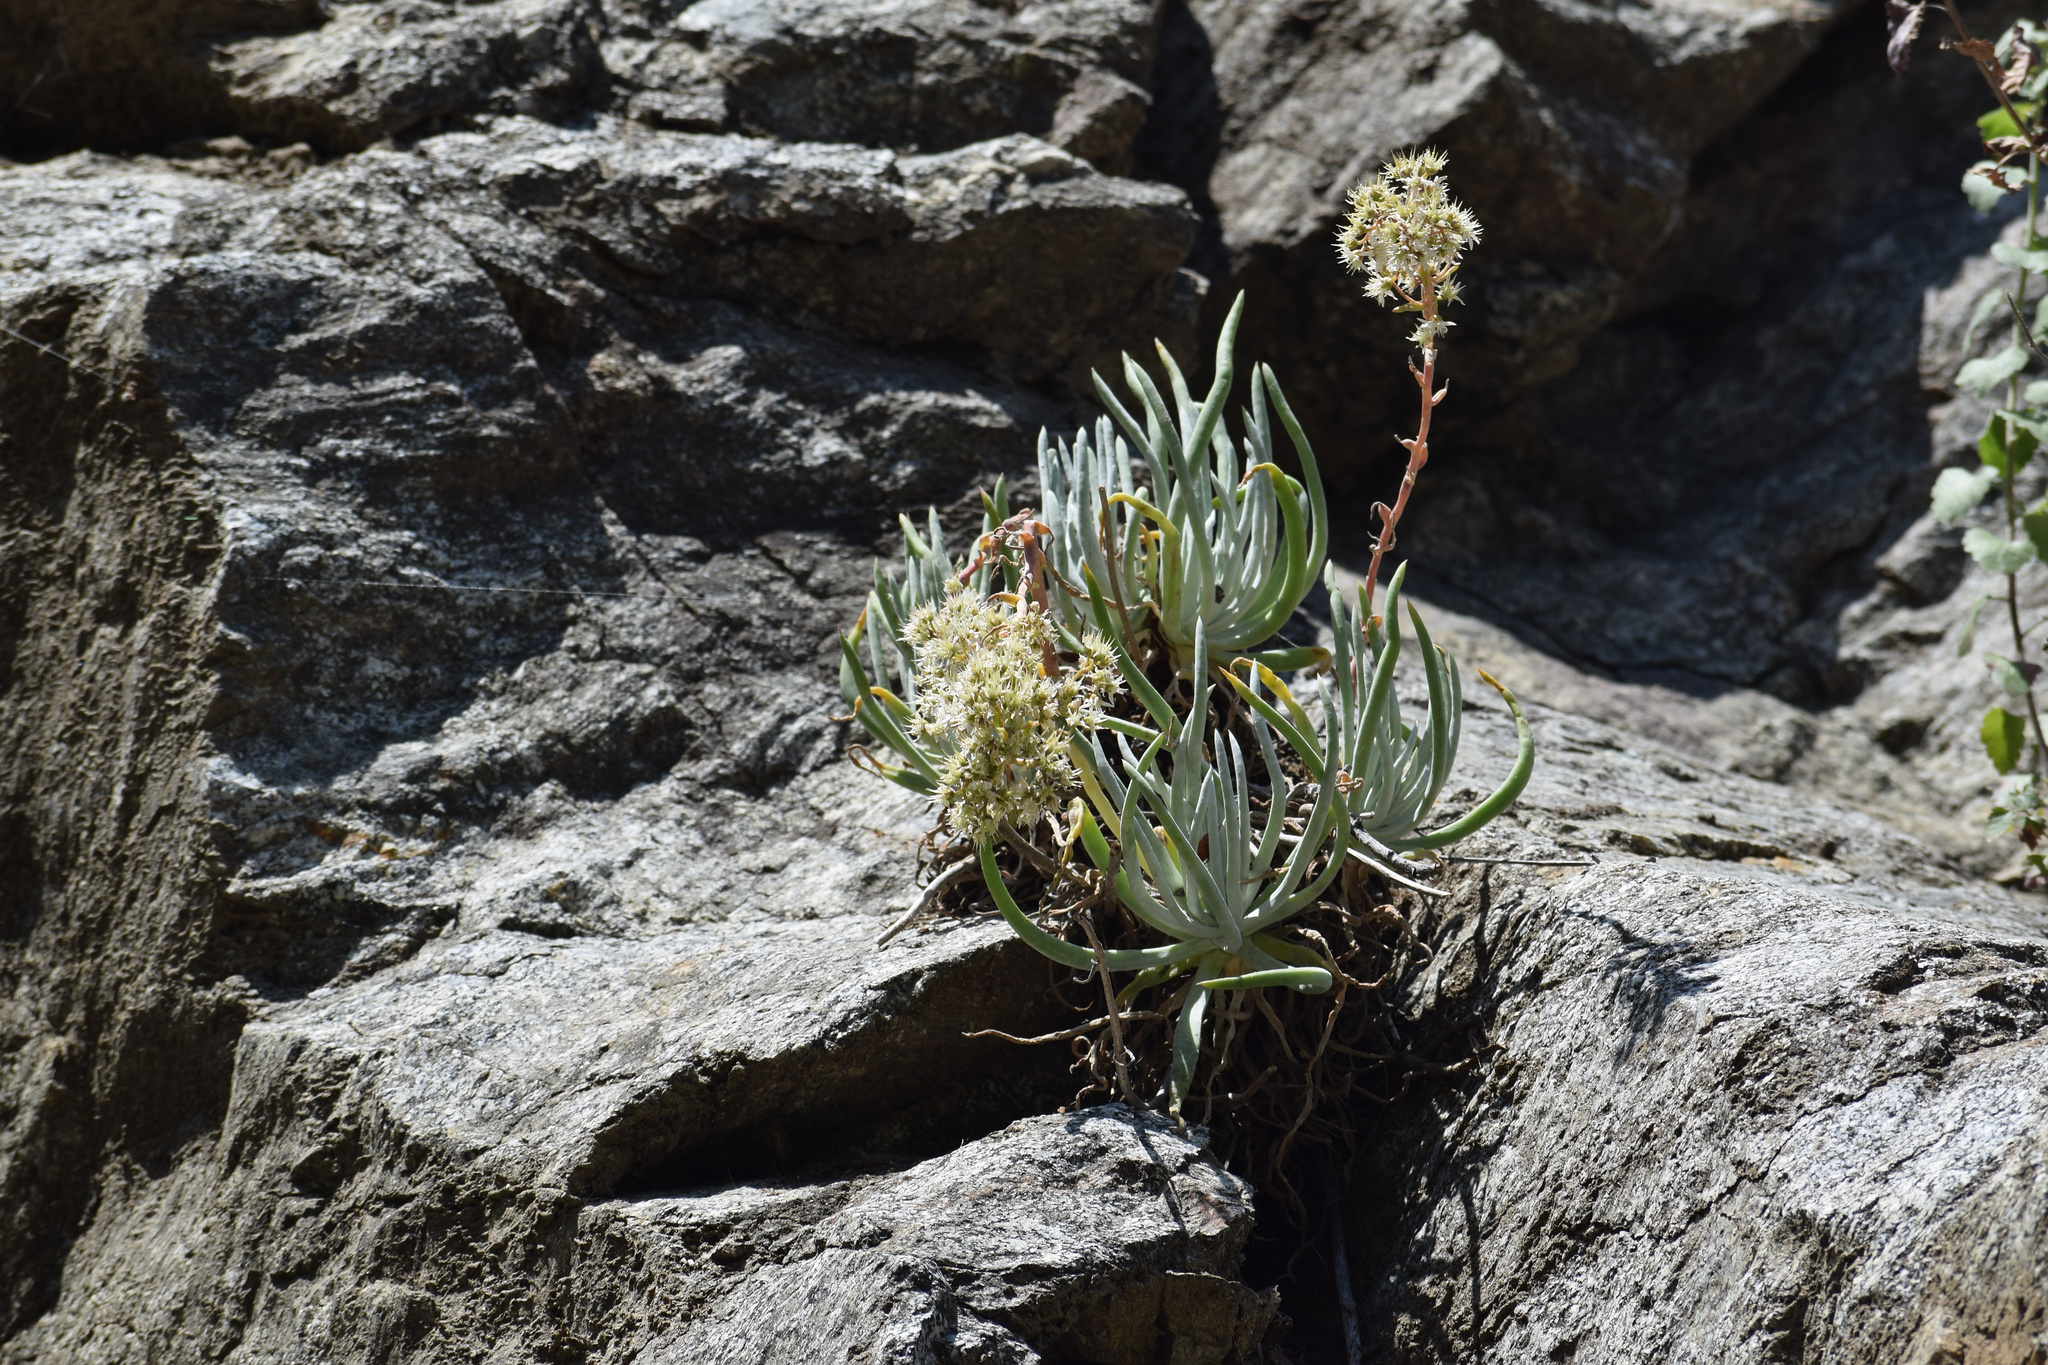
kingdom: Plantae
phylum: Tracheophyta
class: Magnoliopsida
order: Saxifragales
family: Crassulaceae
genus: Dudleya
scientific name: Dudleya densiflora
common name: San gabriel mountains dudleya
